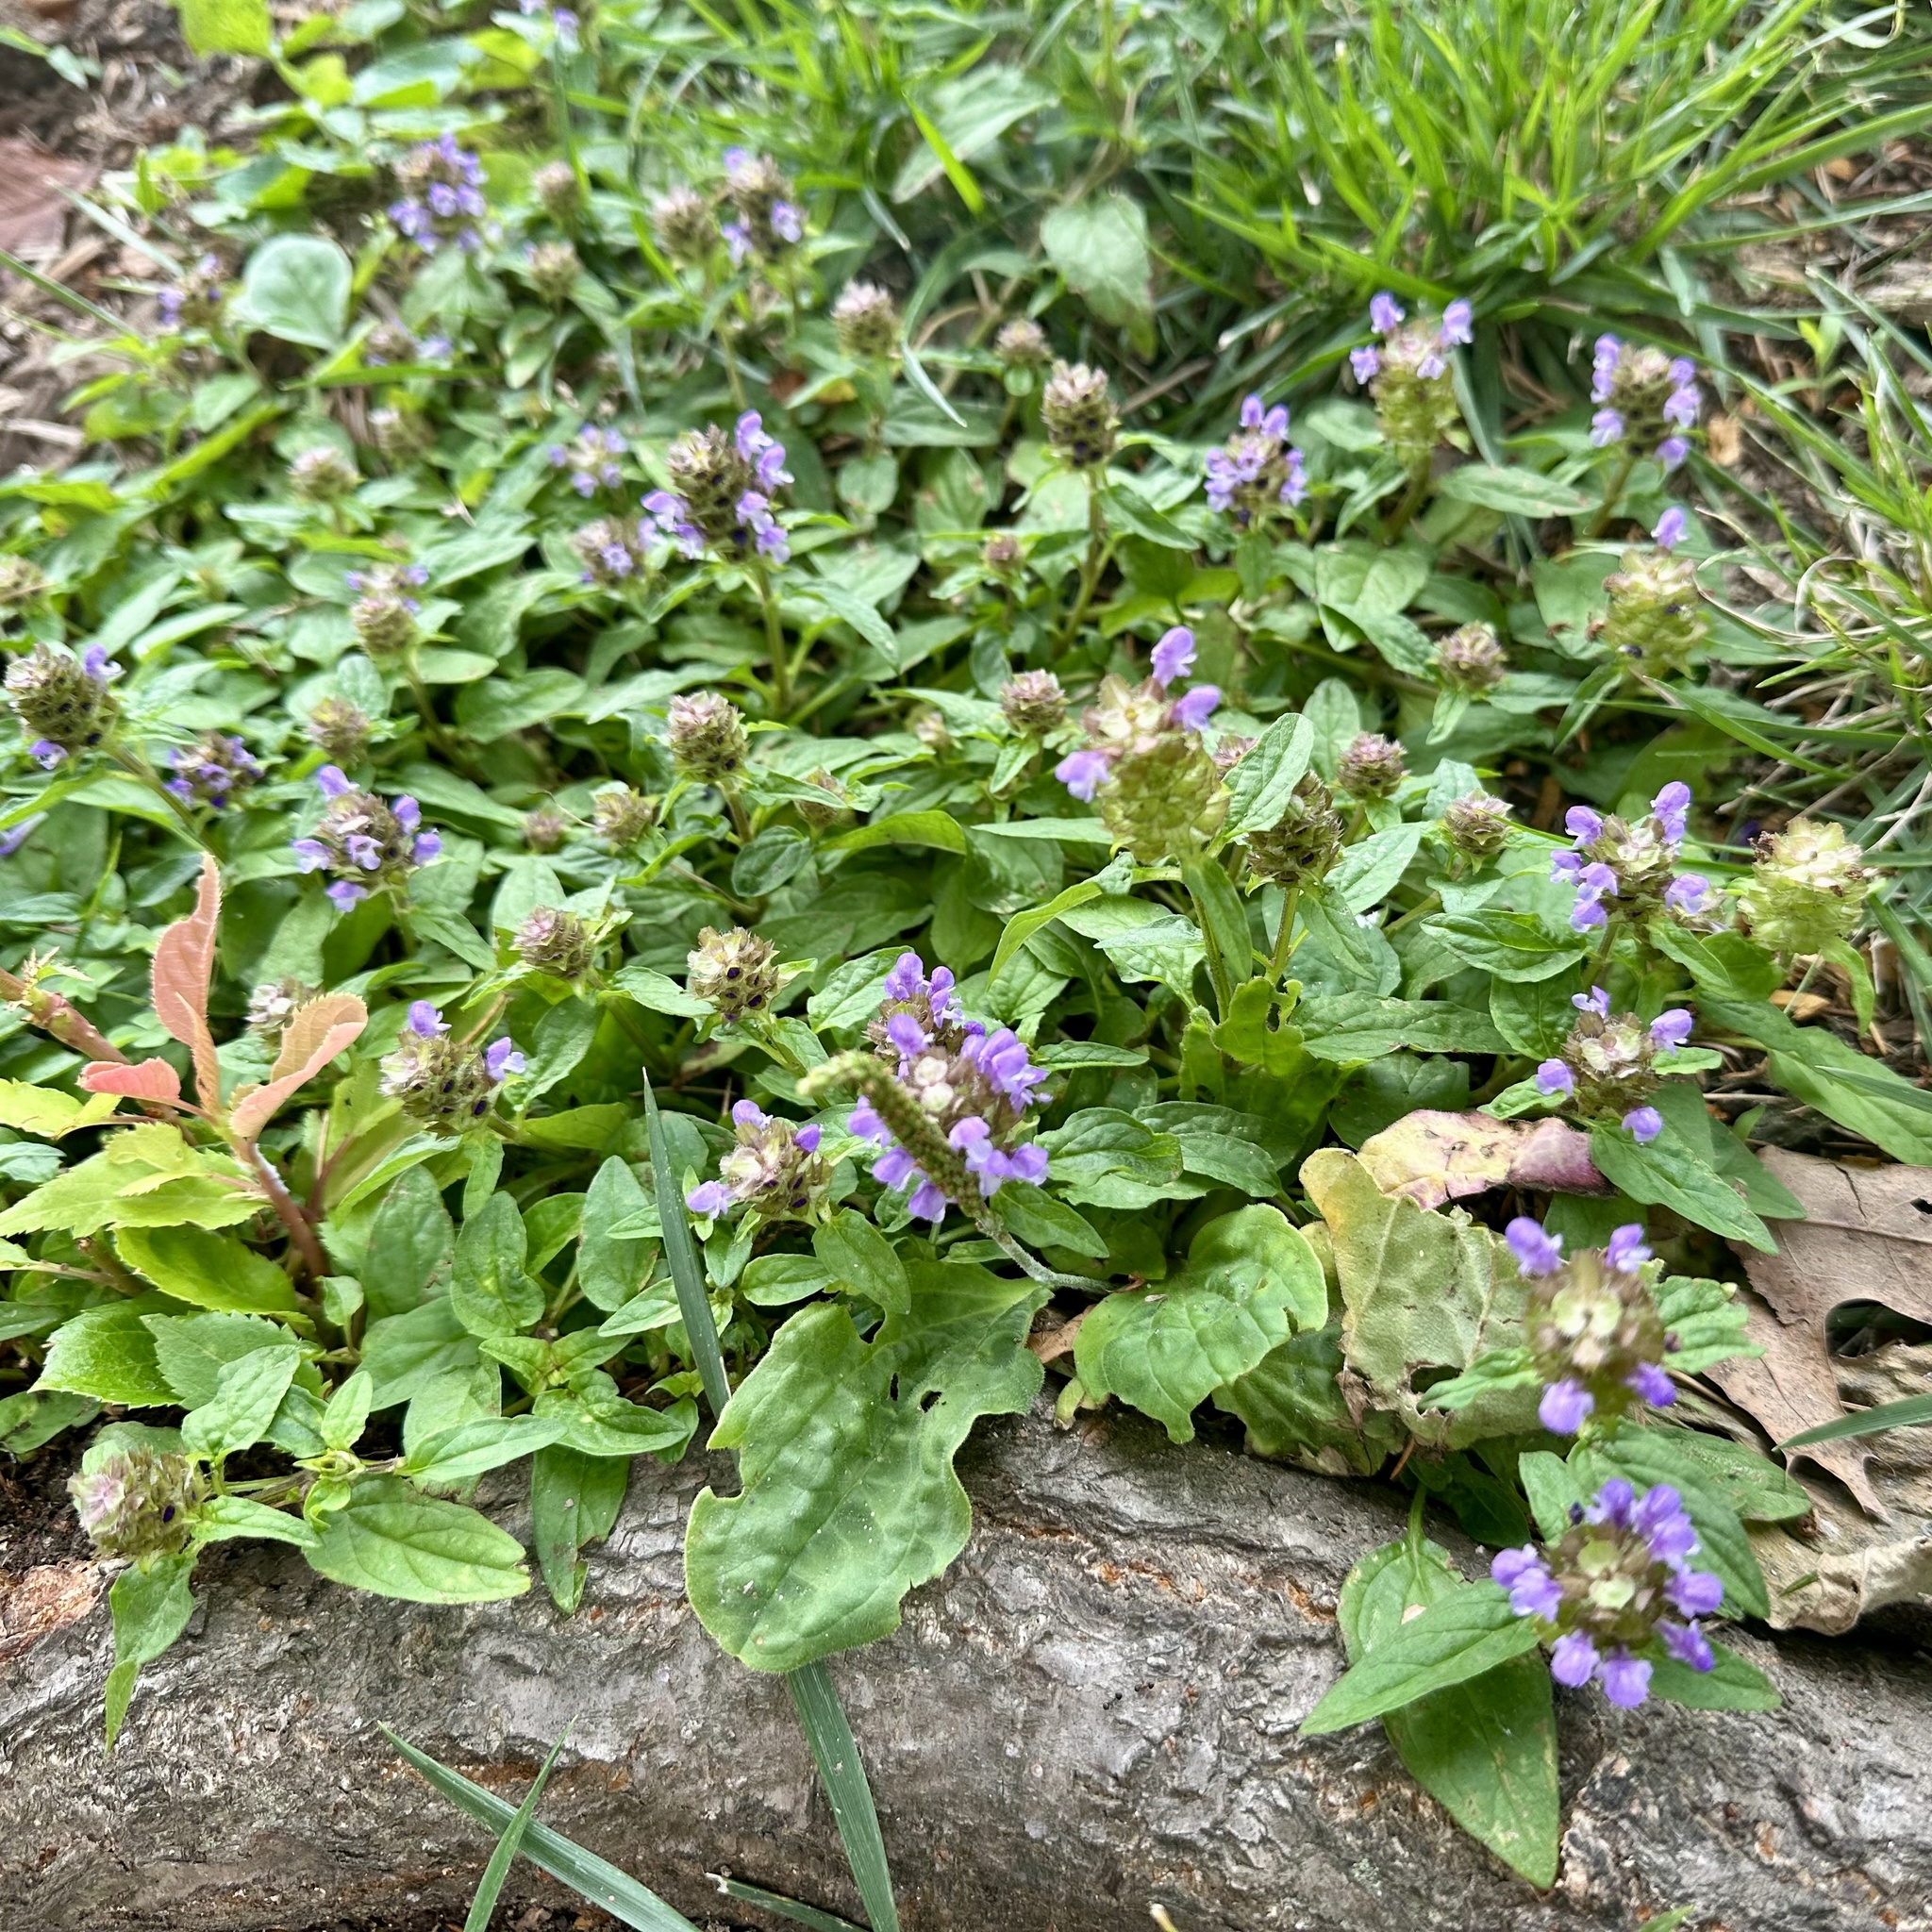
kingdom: Plantae
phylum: Tracheophyta
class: Magnoliopsida
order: Lamiales
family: Lamiaceae
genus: Prunella
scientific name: Prunella vulgaris
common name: Heal-all
